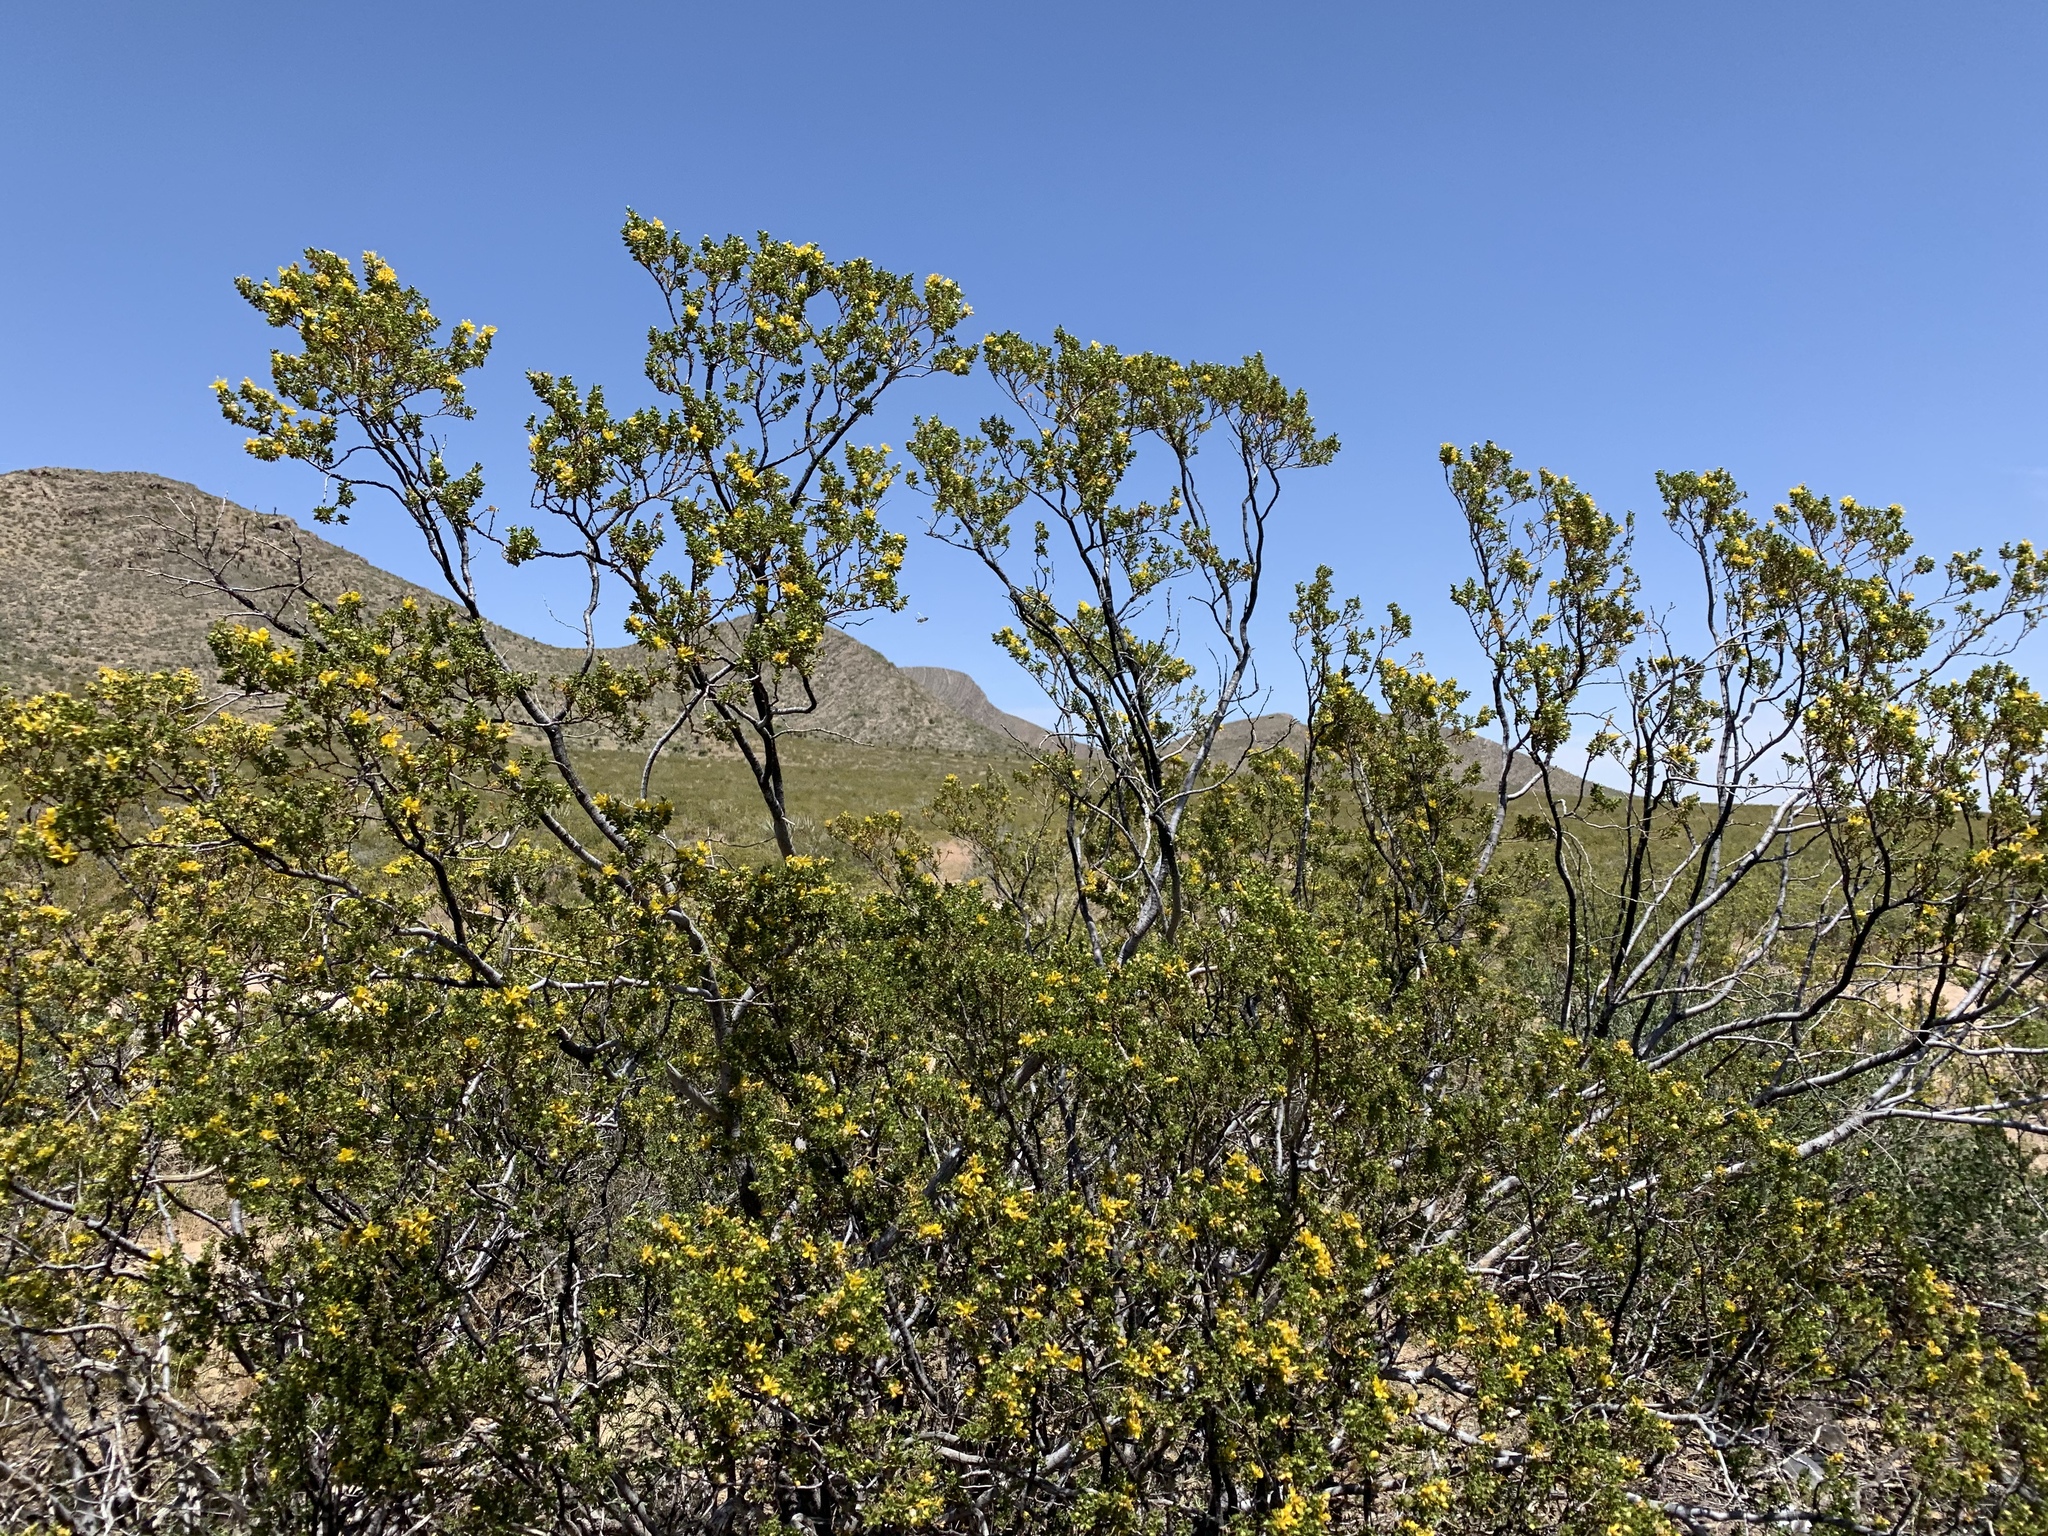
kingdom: Plantae
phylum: Tracheophyta
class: Magnoliopsida
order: Zygophyllales
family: Zygophyllaceae
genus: Larrea
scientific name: Larrea tridentata
